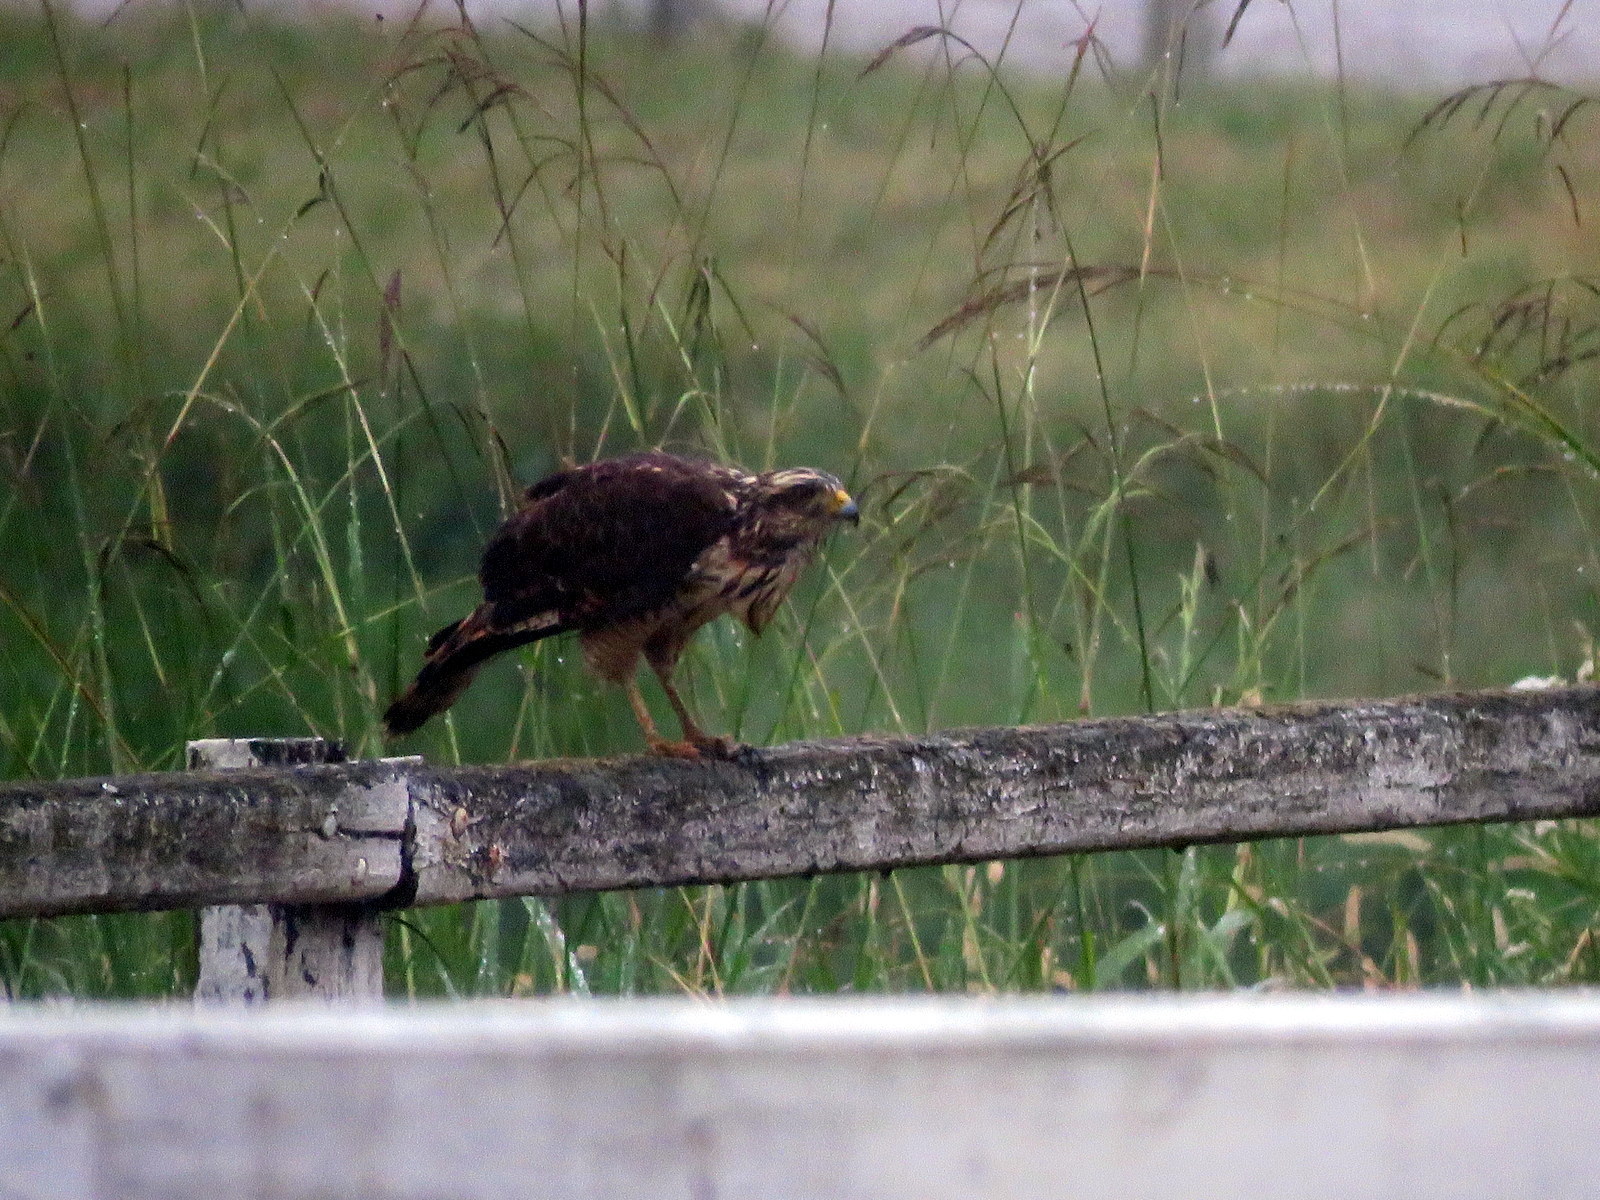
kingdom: Animalia
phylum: Chordata
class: Aves
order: Accipitriformes
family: Accipitridae
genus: Rupornis
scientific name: Rupornis magnirostris
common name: Roadside hawk
